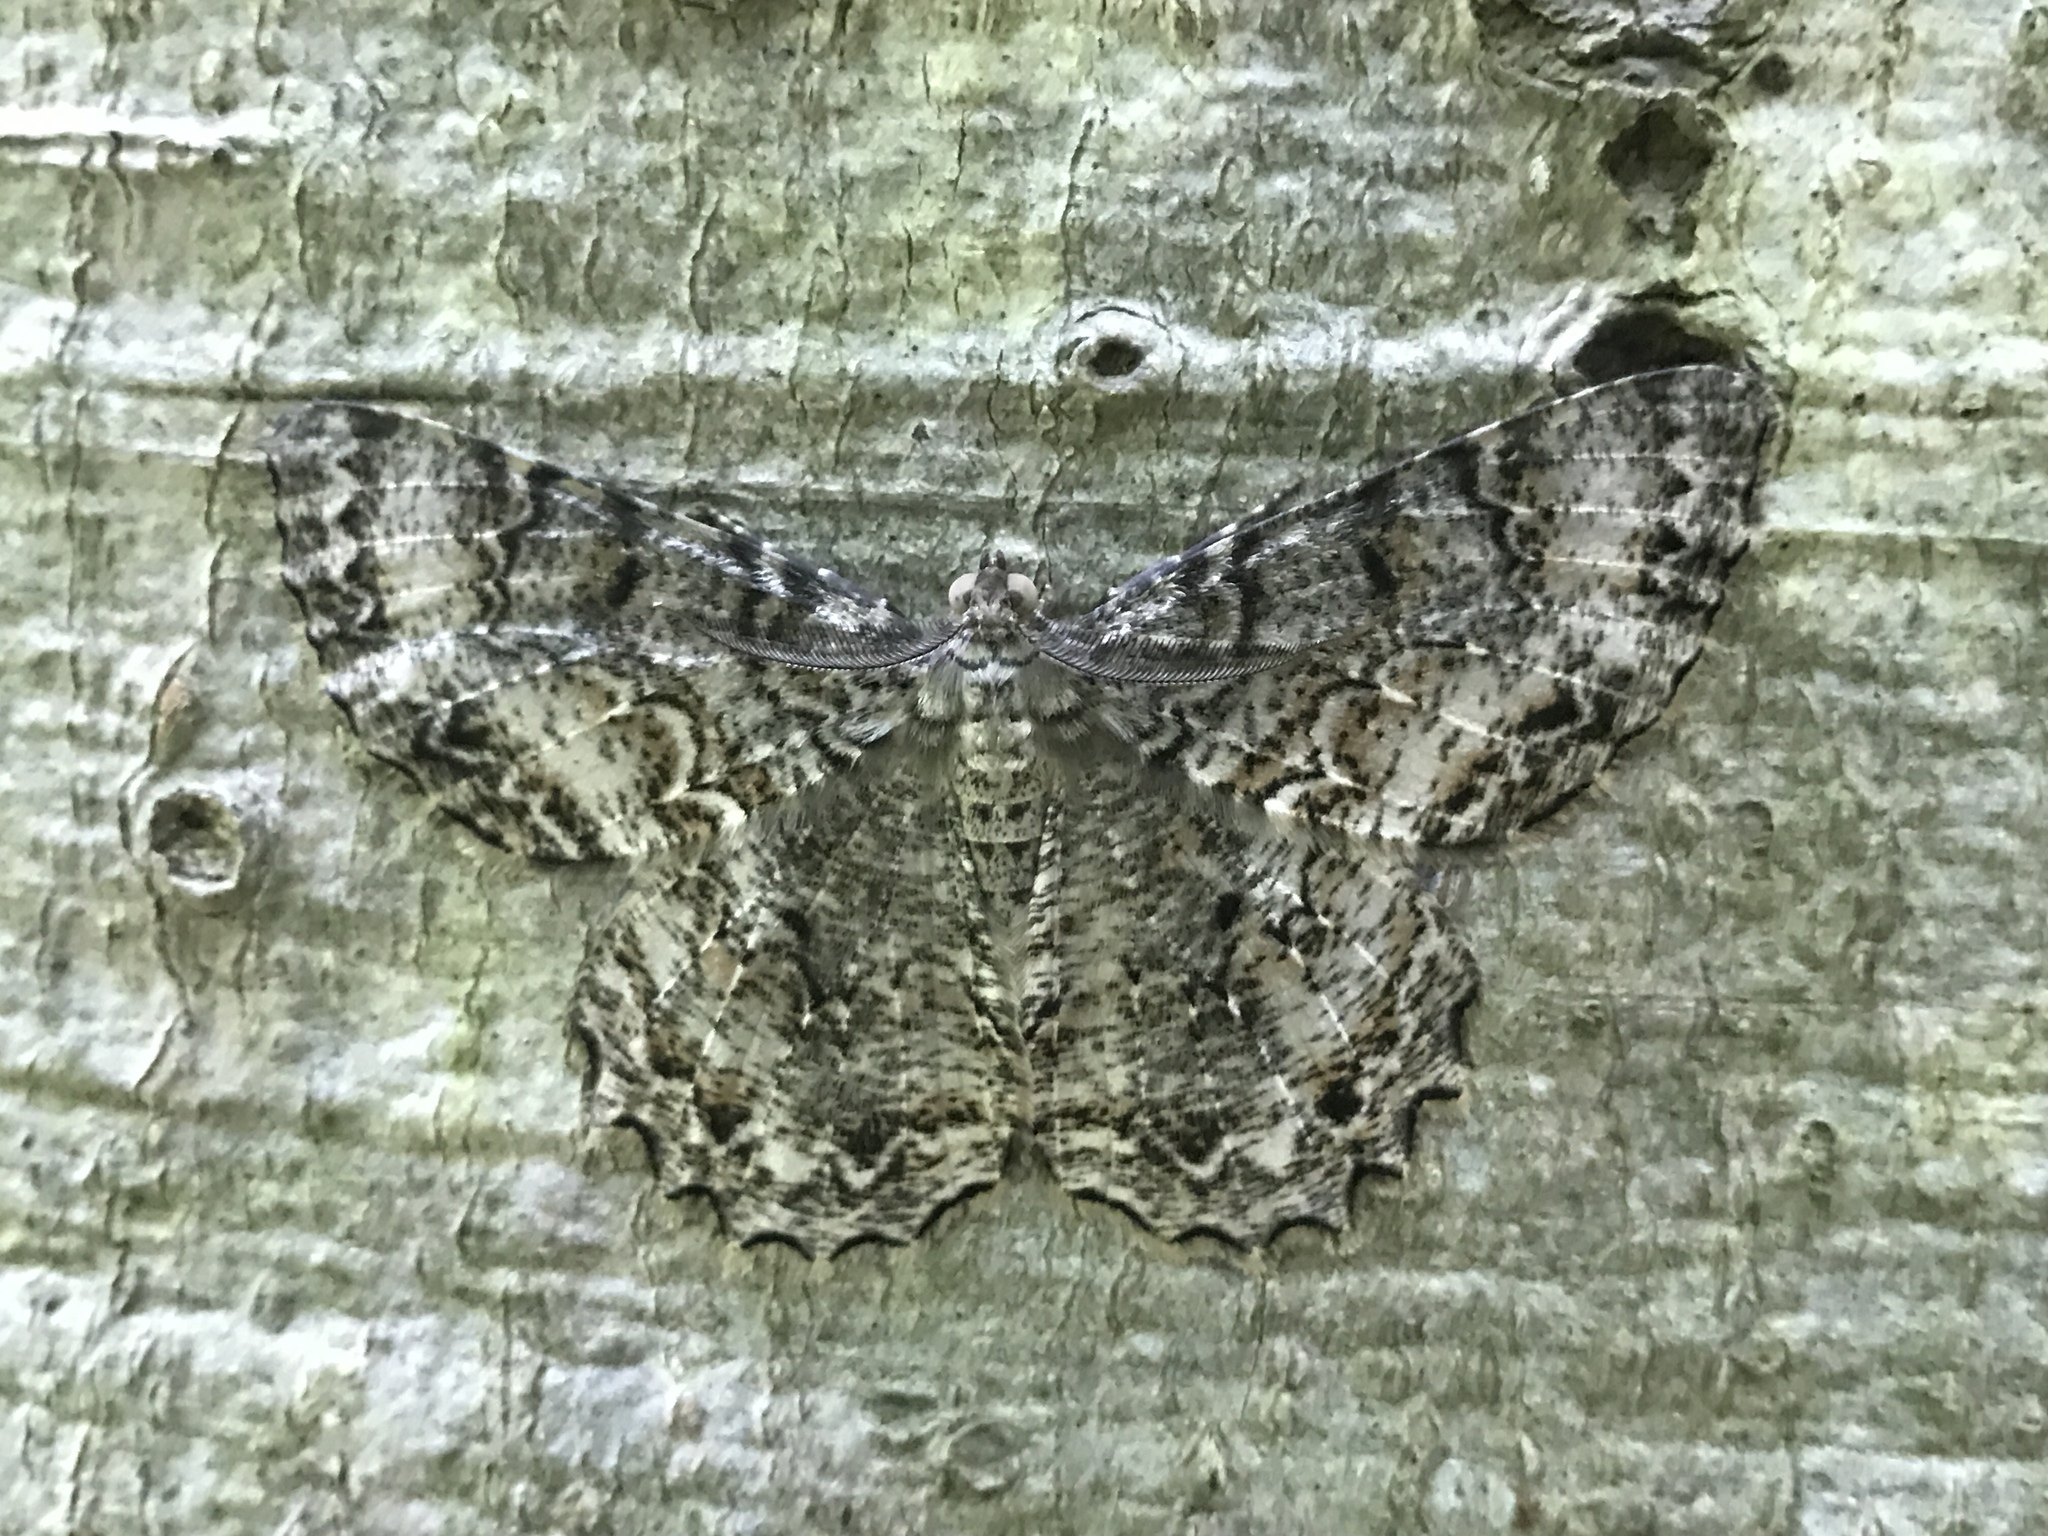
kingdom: Animalia
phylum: Arthropoda
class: Insecta
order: Lepidoptera
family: Geometridae
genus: Epimecis
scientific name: Epimecis hortaria
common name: Tulip-tree beauty
